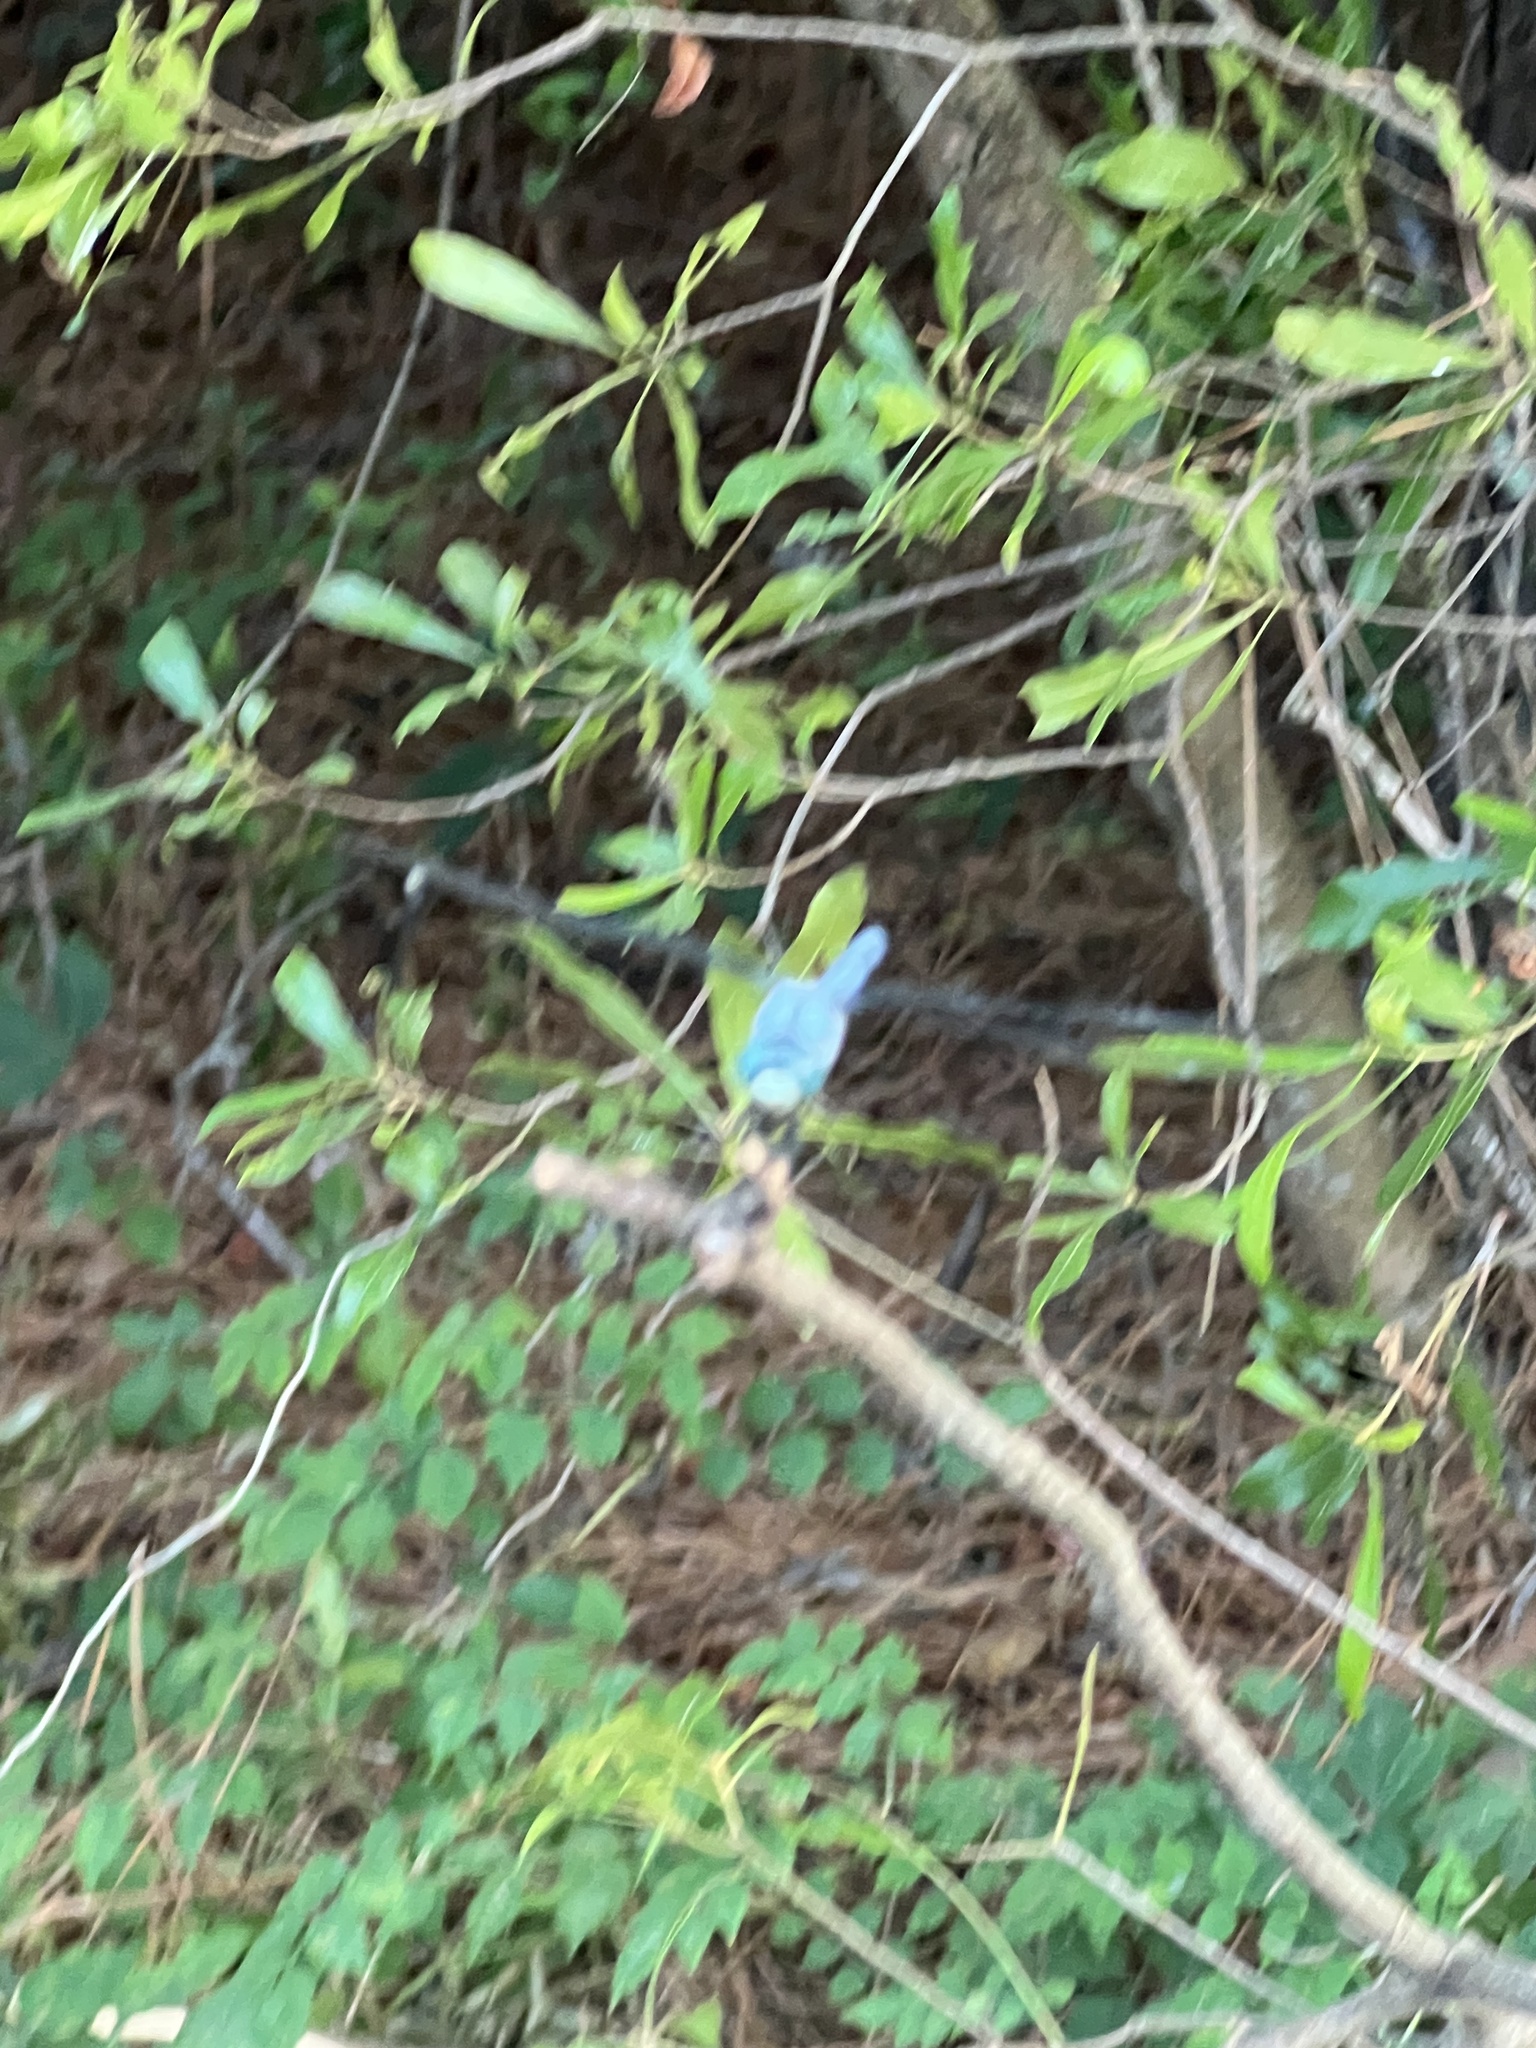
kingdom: Animalia
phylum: Arthropoda
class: Insecta
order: Odonata
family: Libellulidae
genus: Libellula
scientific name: Libellula vibrans
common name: Great blue skimmer
